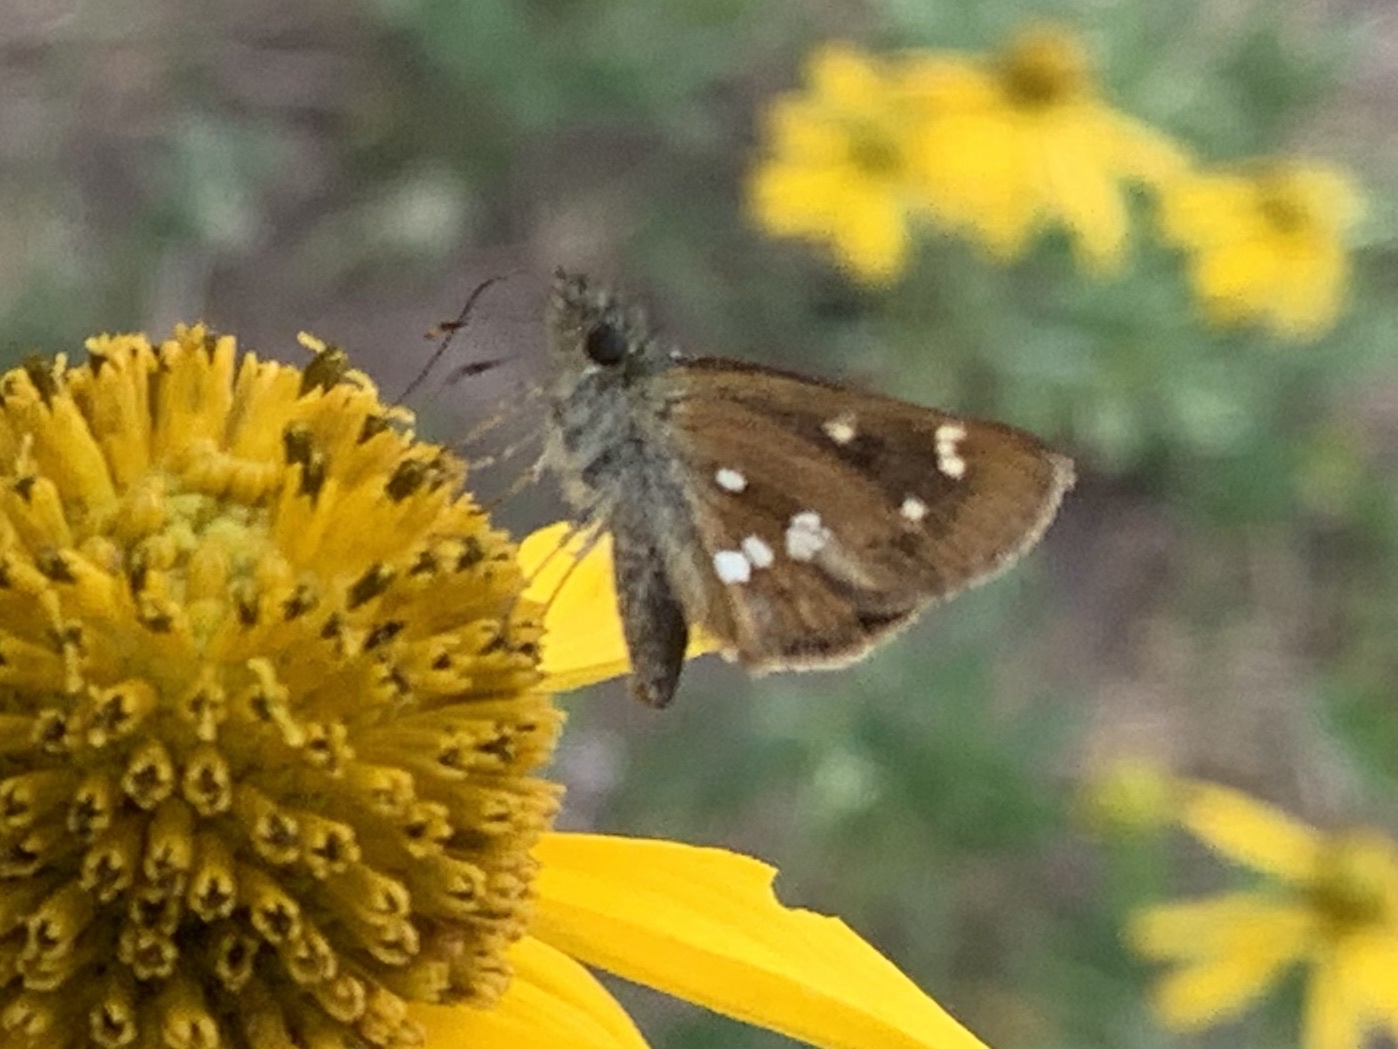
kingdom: Animalia
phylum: Arthropoda
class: Insecta
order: Lepidoptera
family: Hesperiidae
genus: Piruna
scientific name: Piruna polingii
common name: Four-spotted skipperling
